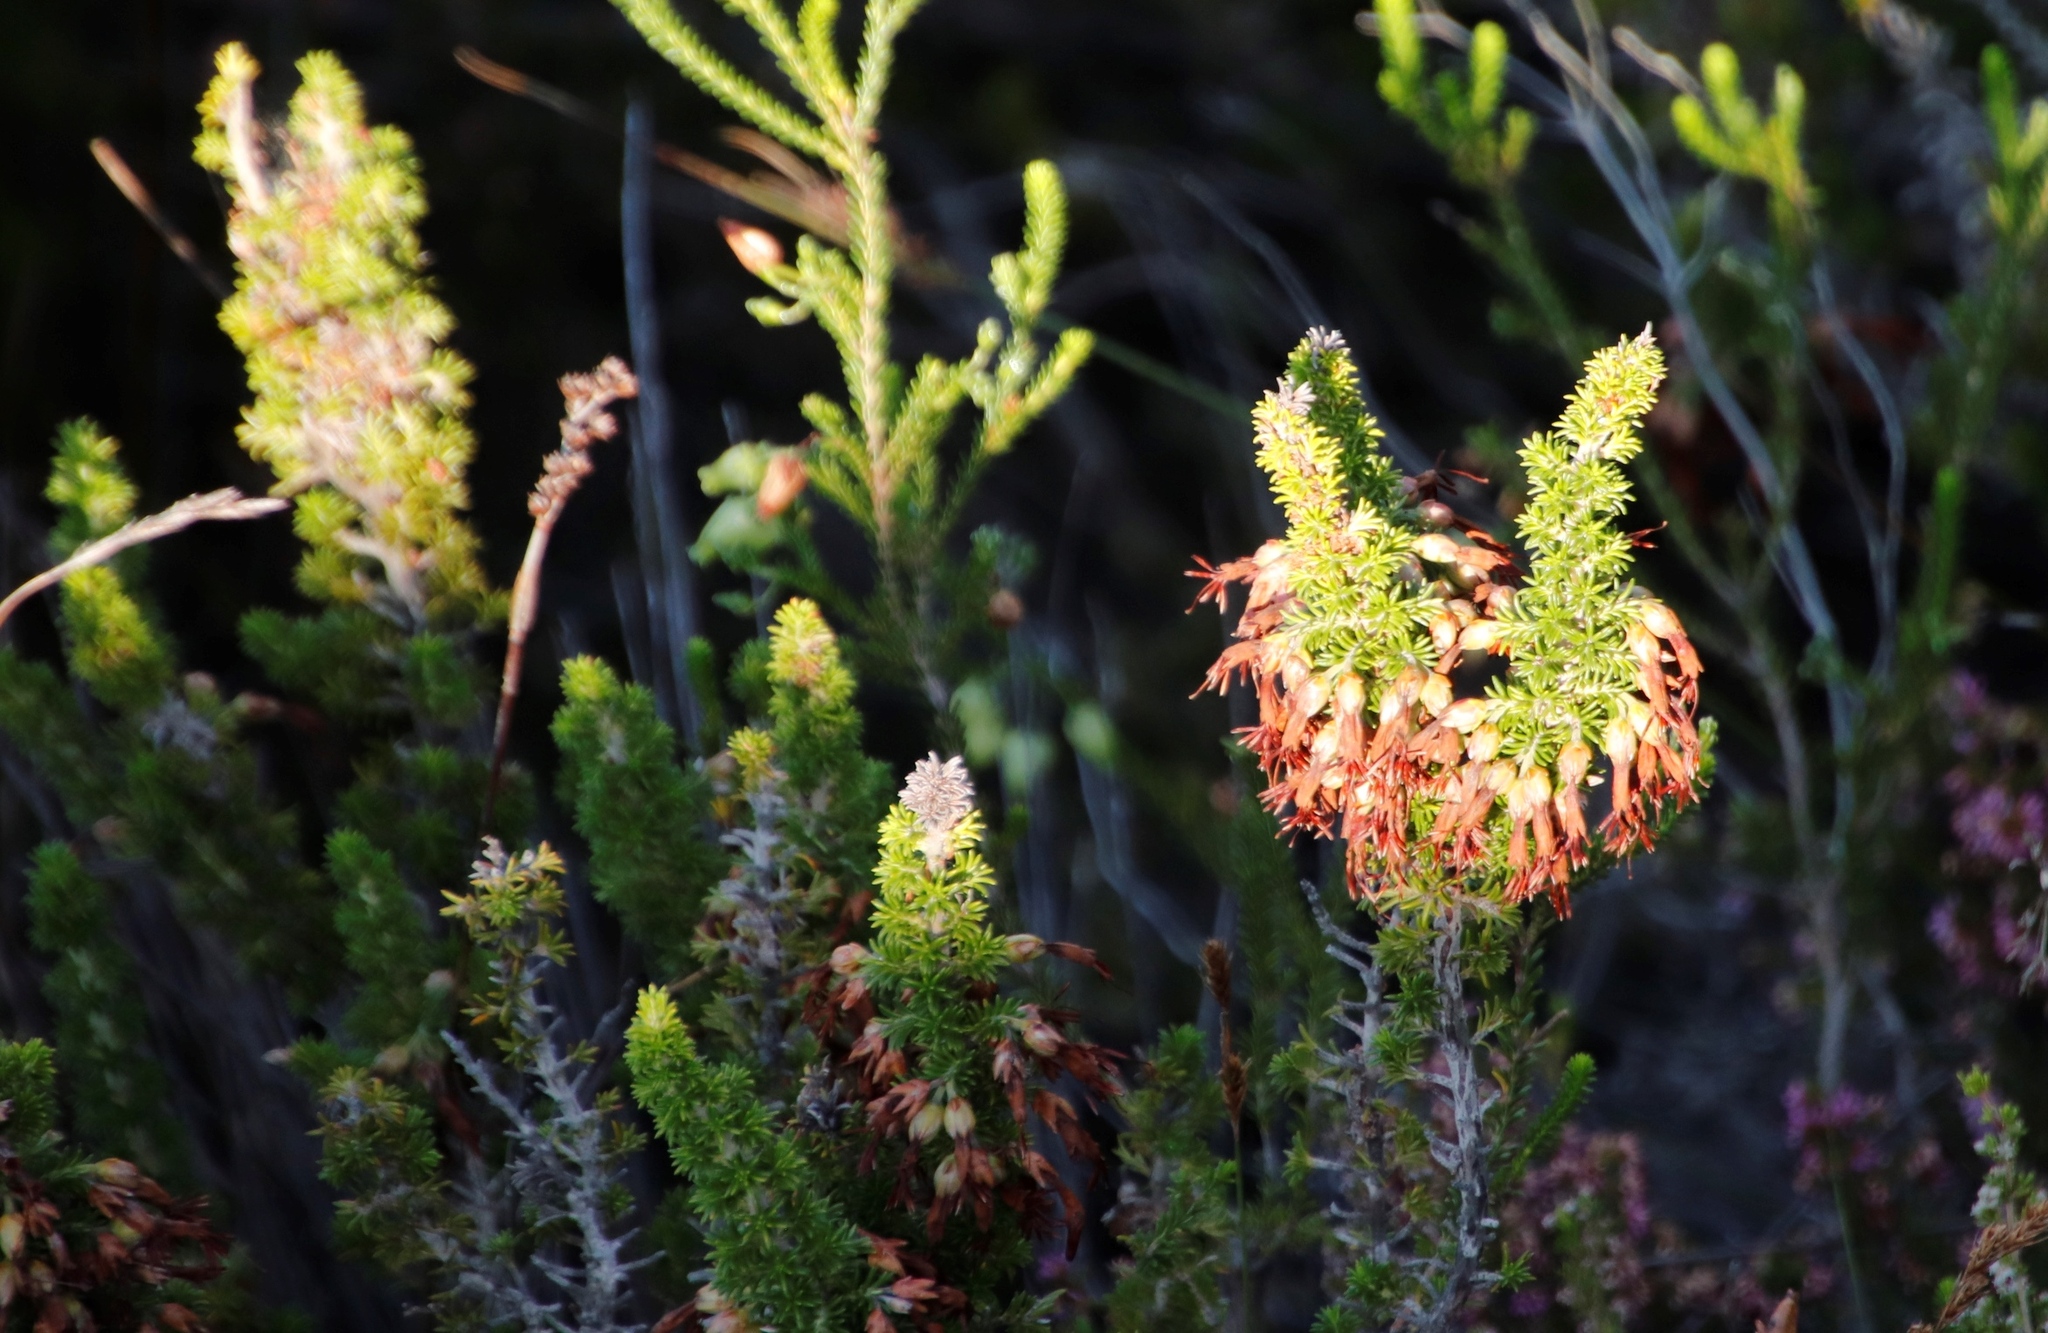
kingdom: Plantae
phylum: Tracheophyta
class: Magnoliopsida
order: Ericales
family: Ericaceae
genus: Erica
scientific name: Erica coccinea
